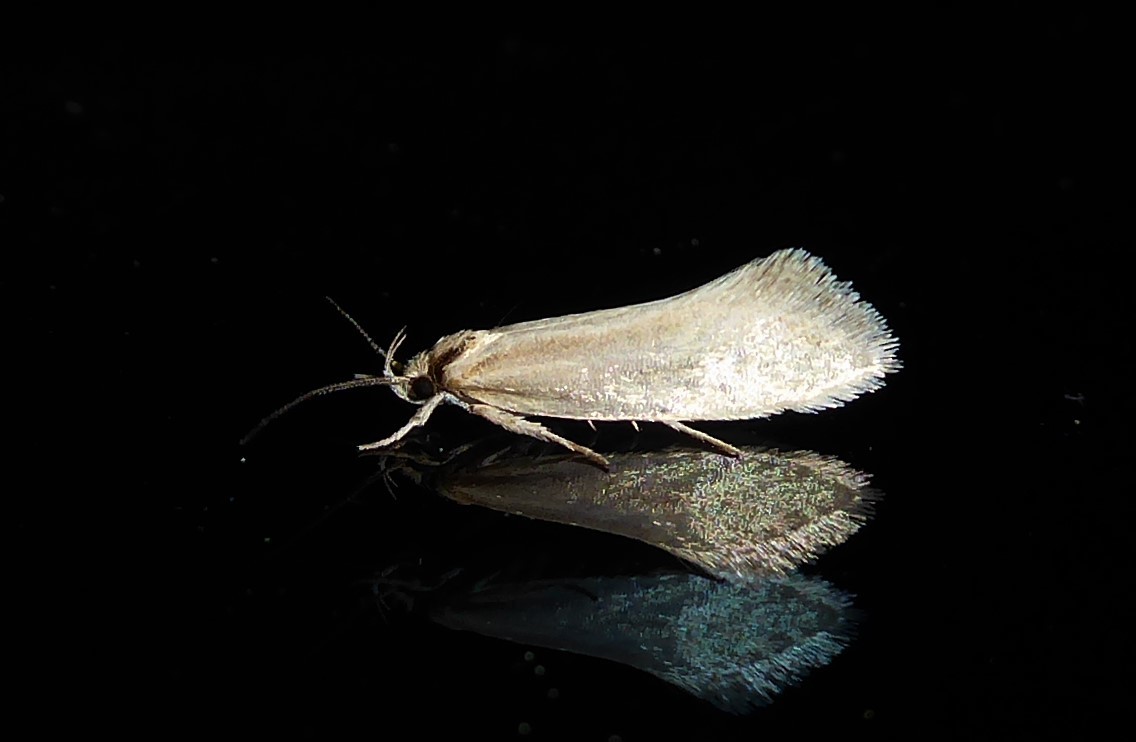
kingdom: Animalia
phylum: Arthropoda
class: Insecta
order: Lepidoptera
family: Oecophoridae
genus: Tingena
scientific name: Tingena chloradelpha
